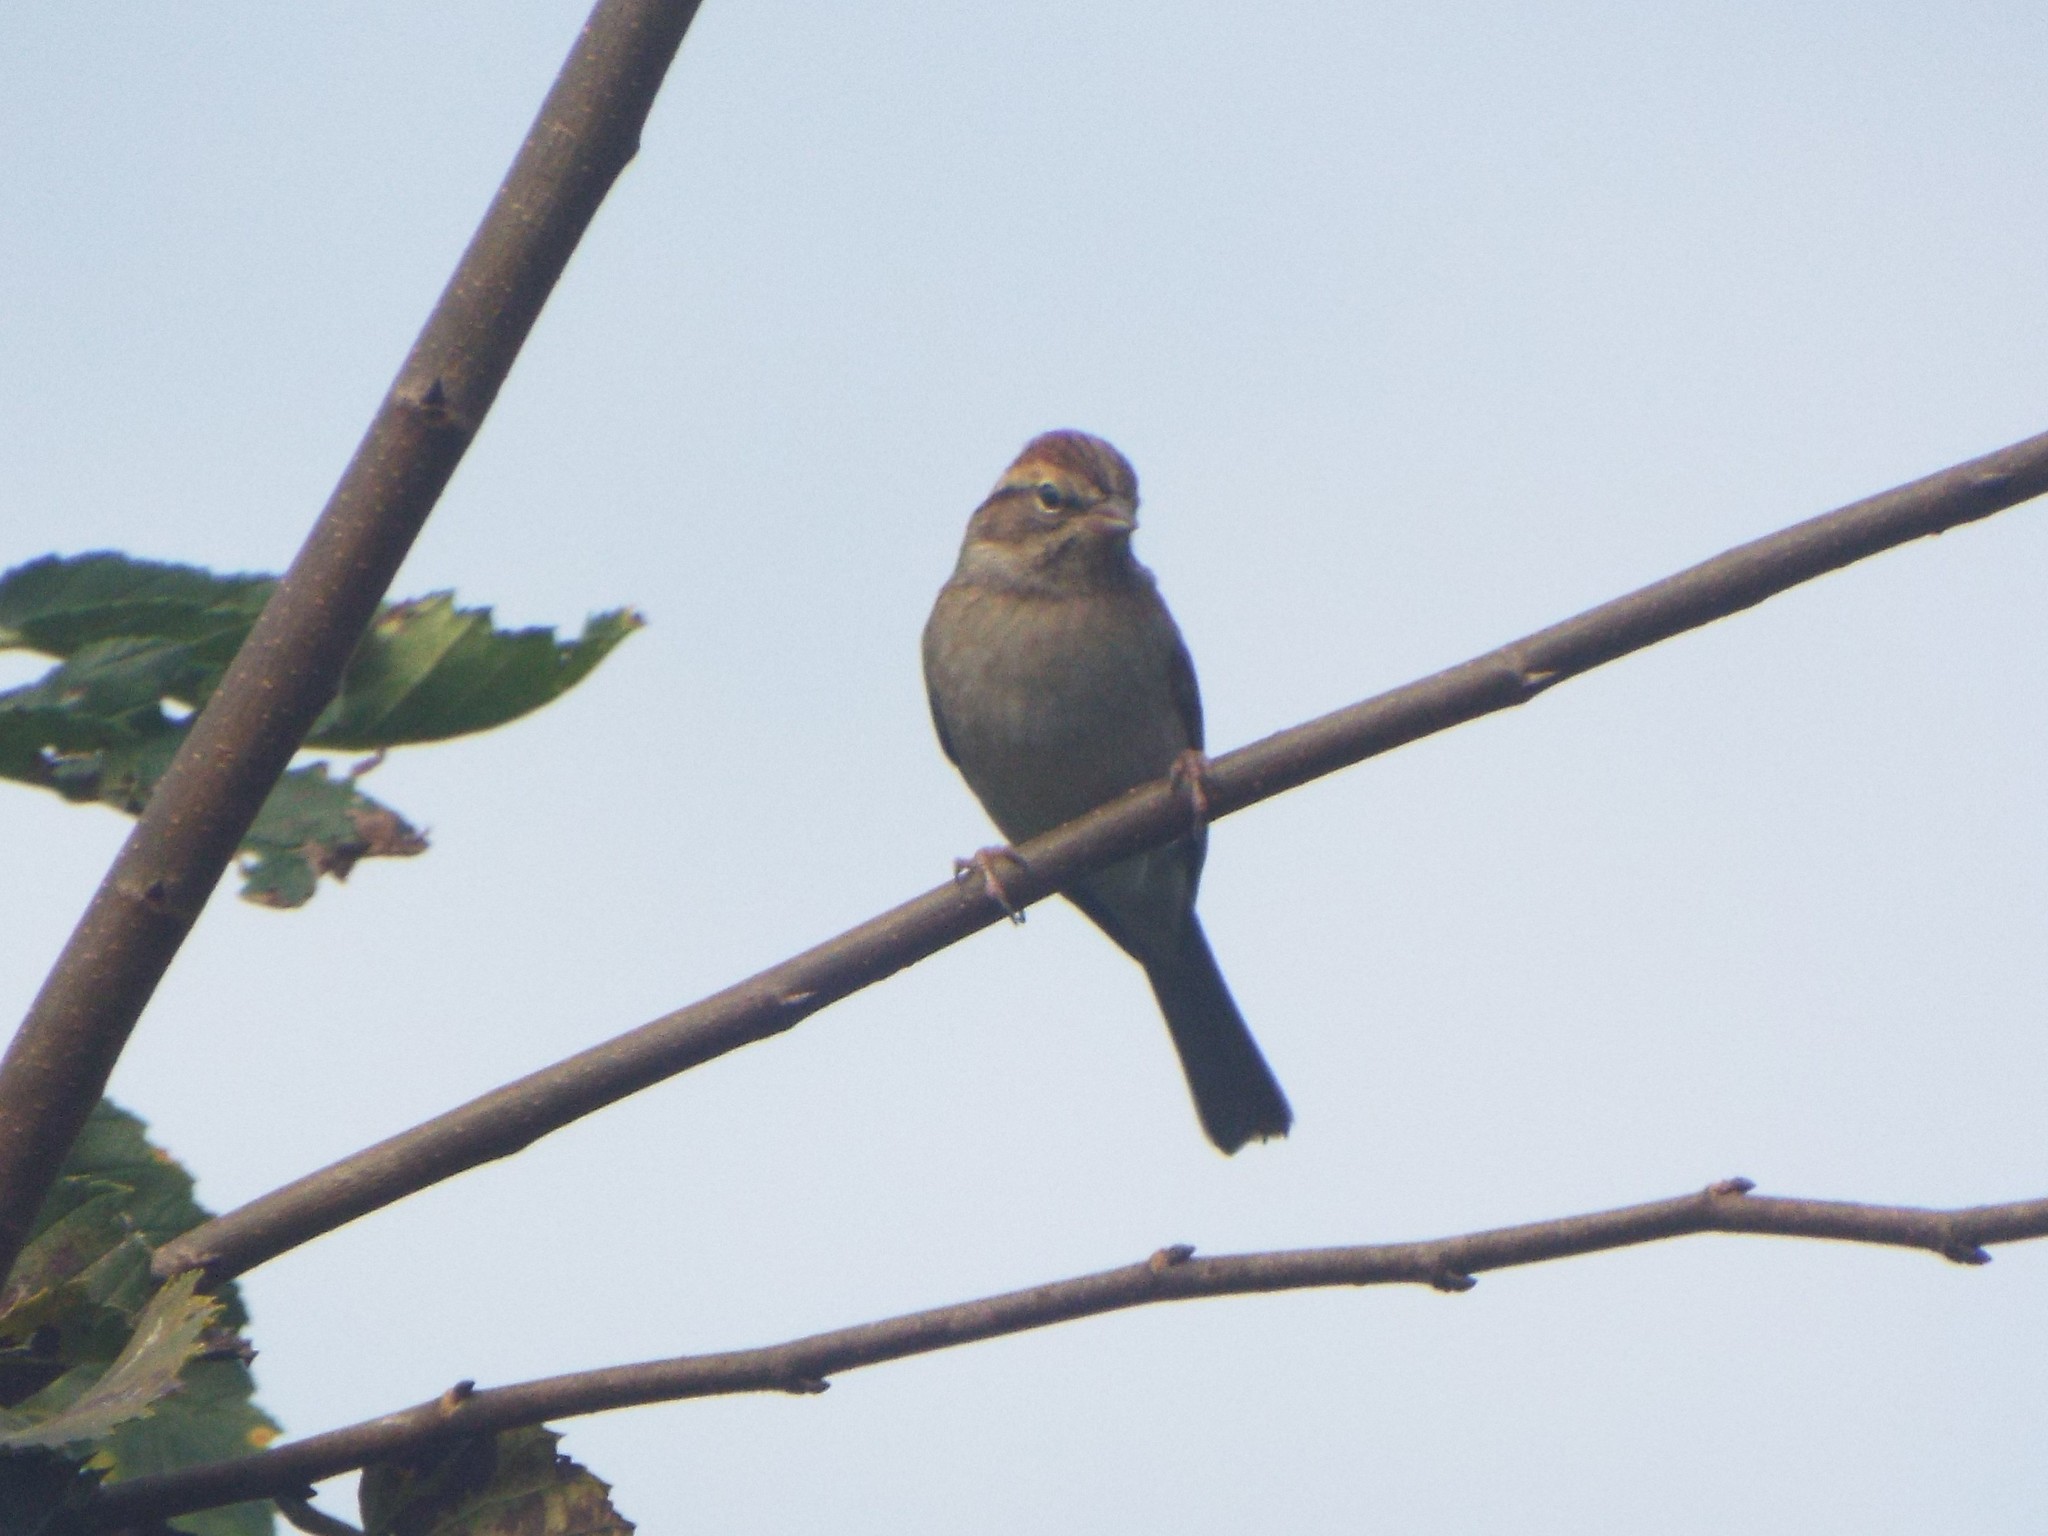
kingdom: Animalia
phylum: Chordata
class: Aves
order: Passeriformes
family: Passerellidae
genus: Spizella
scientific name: Spizella passerina
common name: Chipping sparrow
